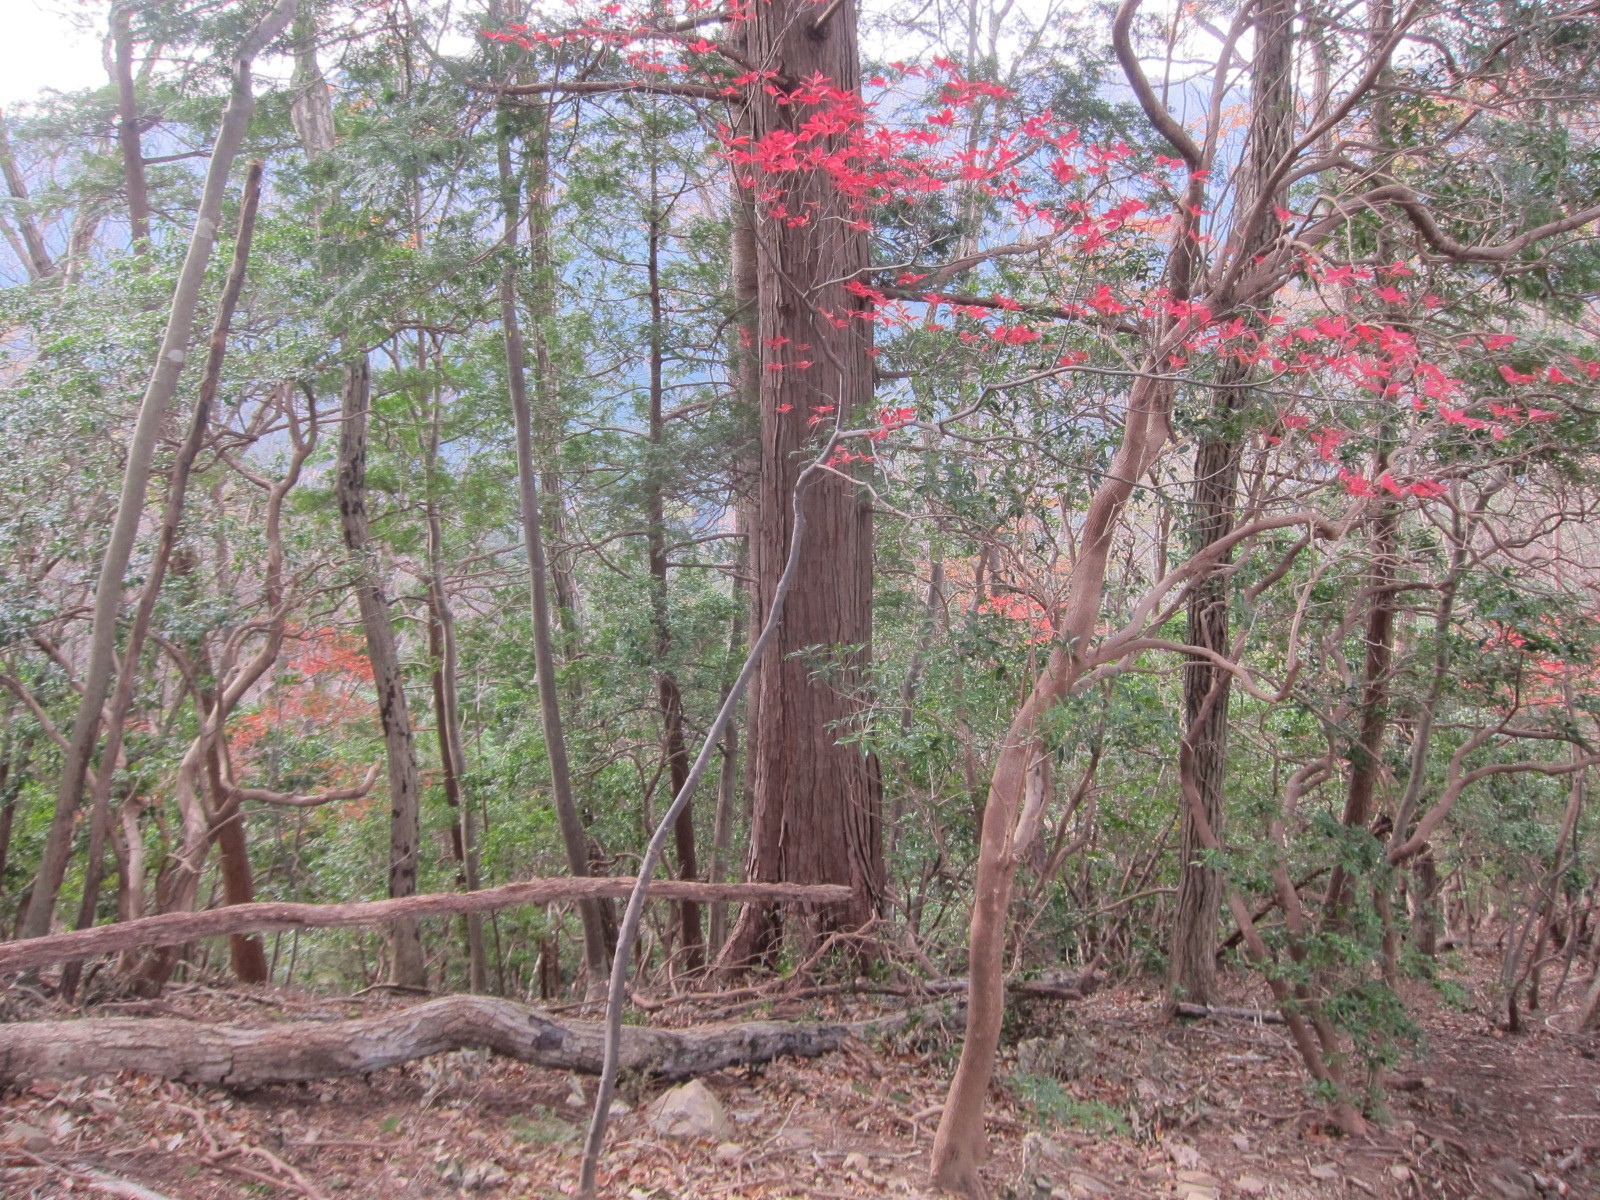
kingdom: Plantae
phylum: Tracheophyta
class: Magnoliopsida
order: Ericales
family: Ericaceae
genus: Enkianthus
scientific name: Enkianthus perulatus
